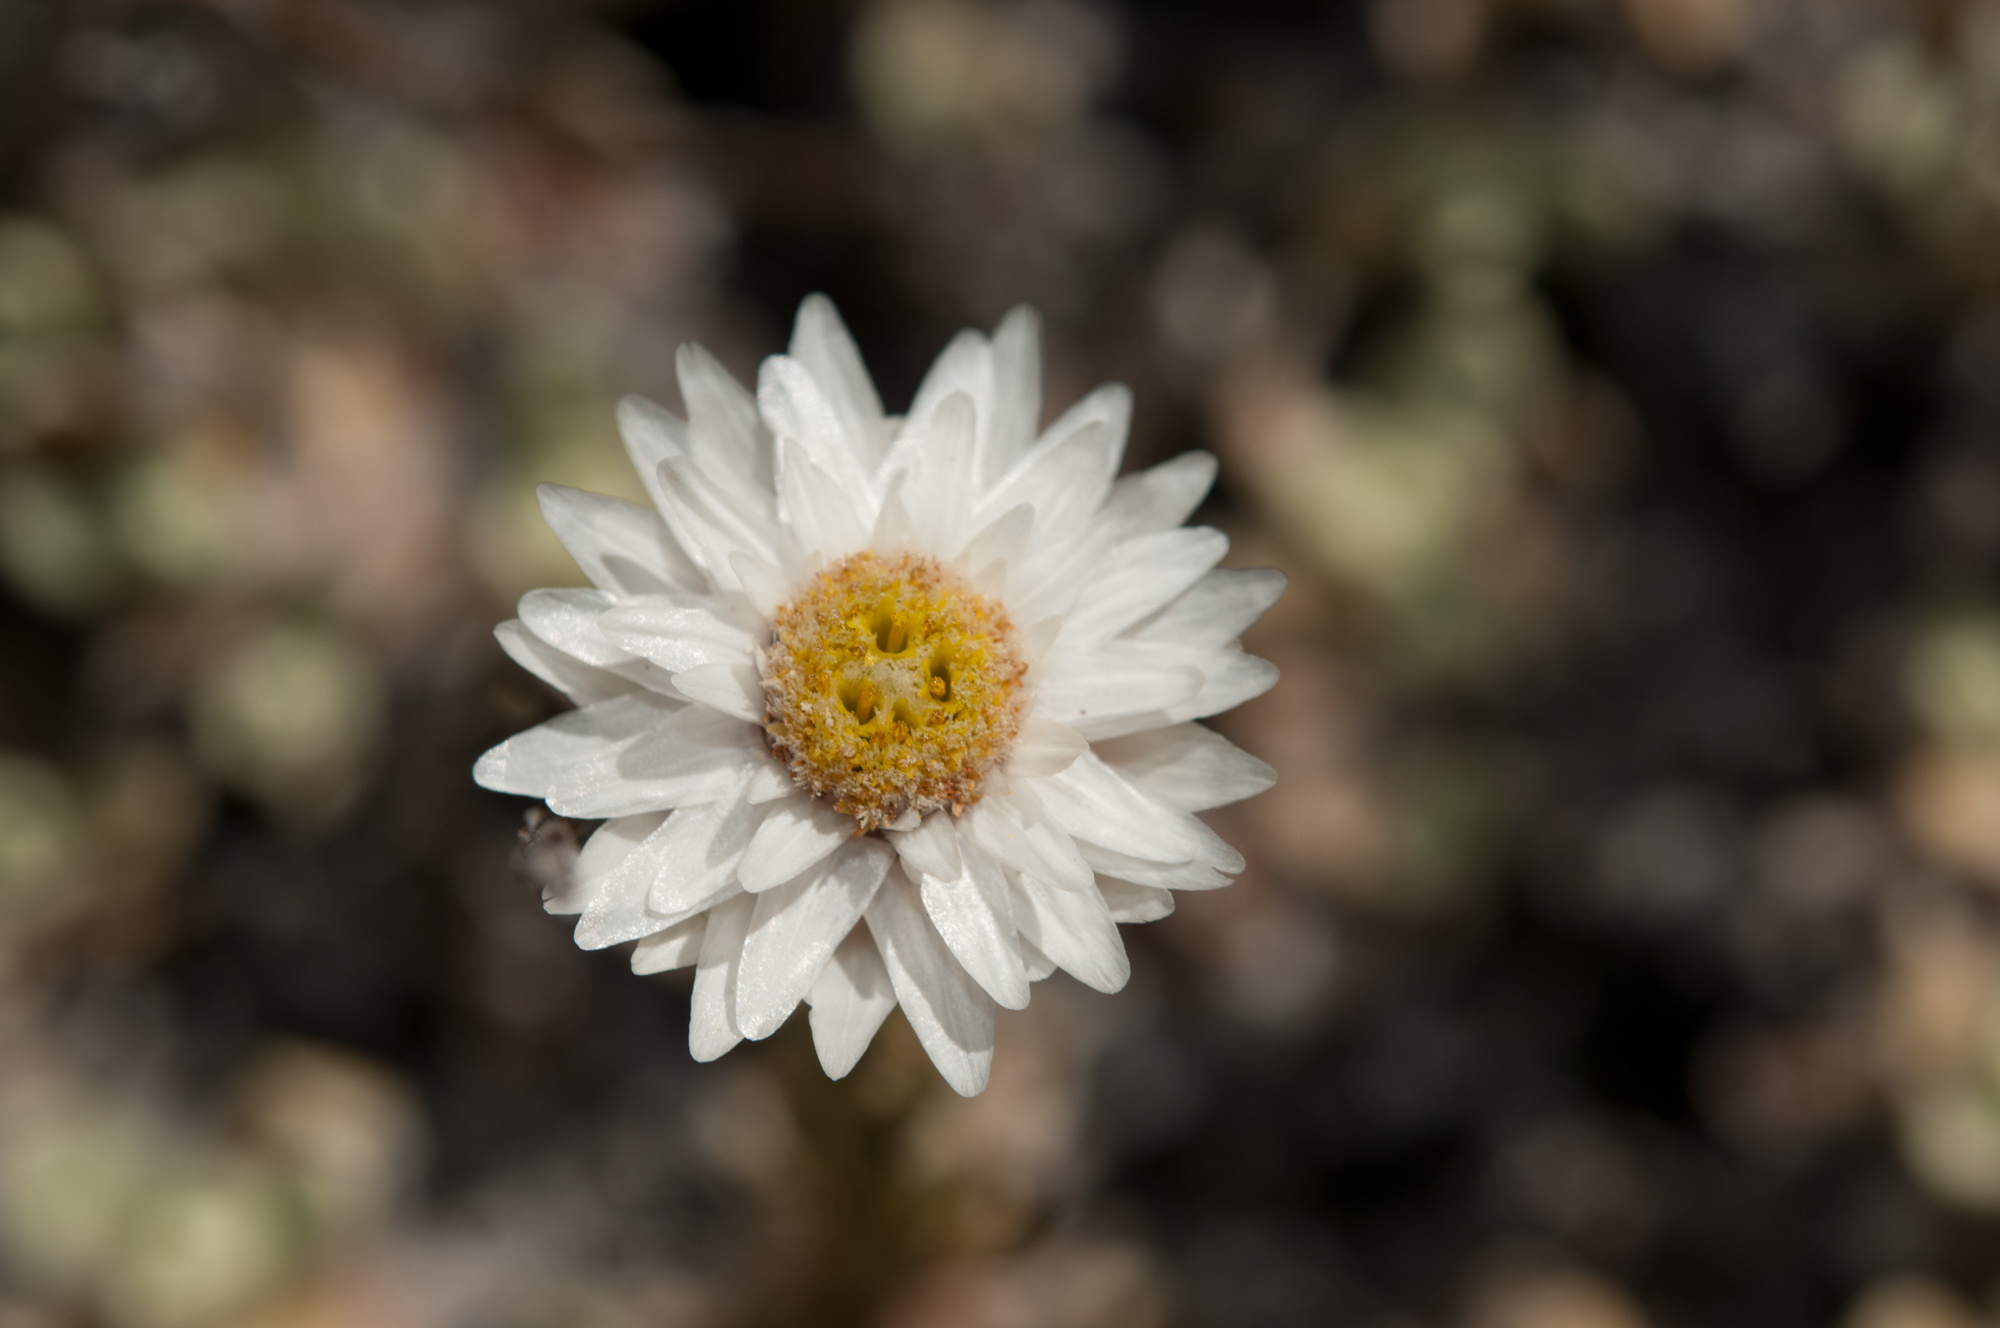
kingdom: Plantae
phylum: Tracheophyta
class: Magnoliopsida
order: Asterales
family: Asteraceae
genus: Anaphalis
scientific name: Anaphalis nepalensis
